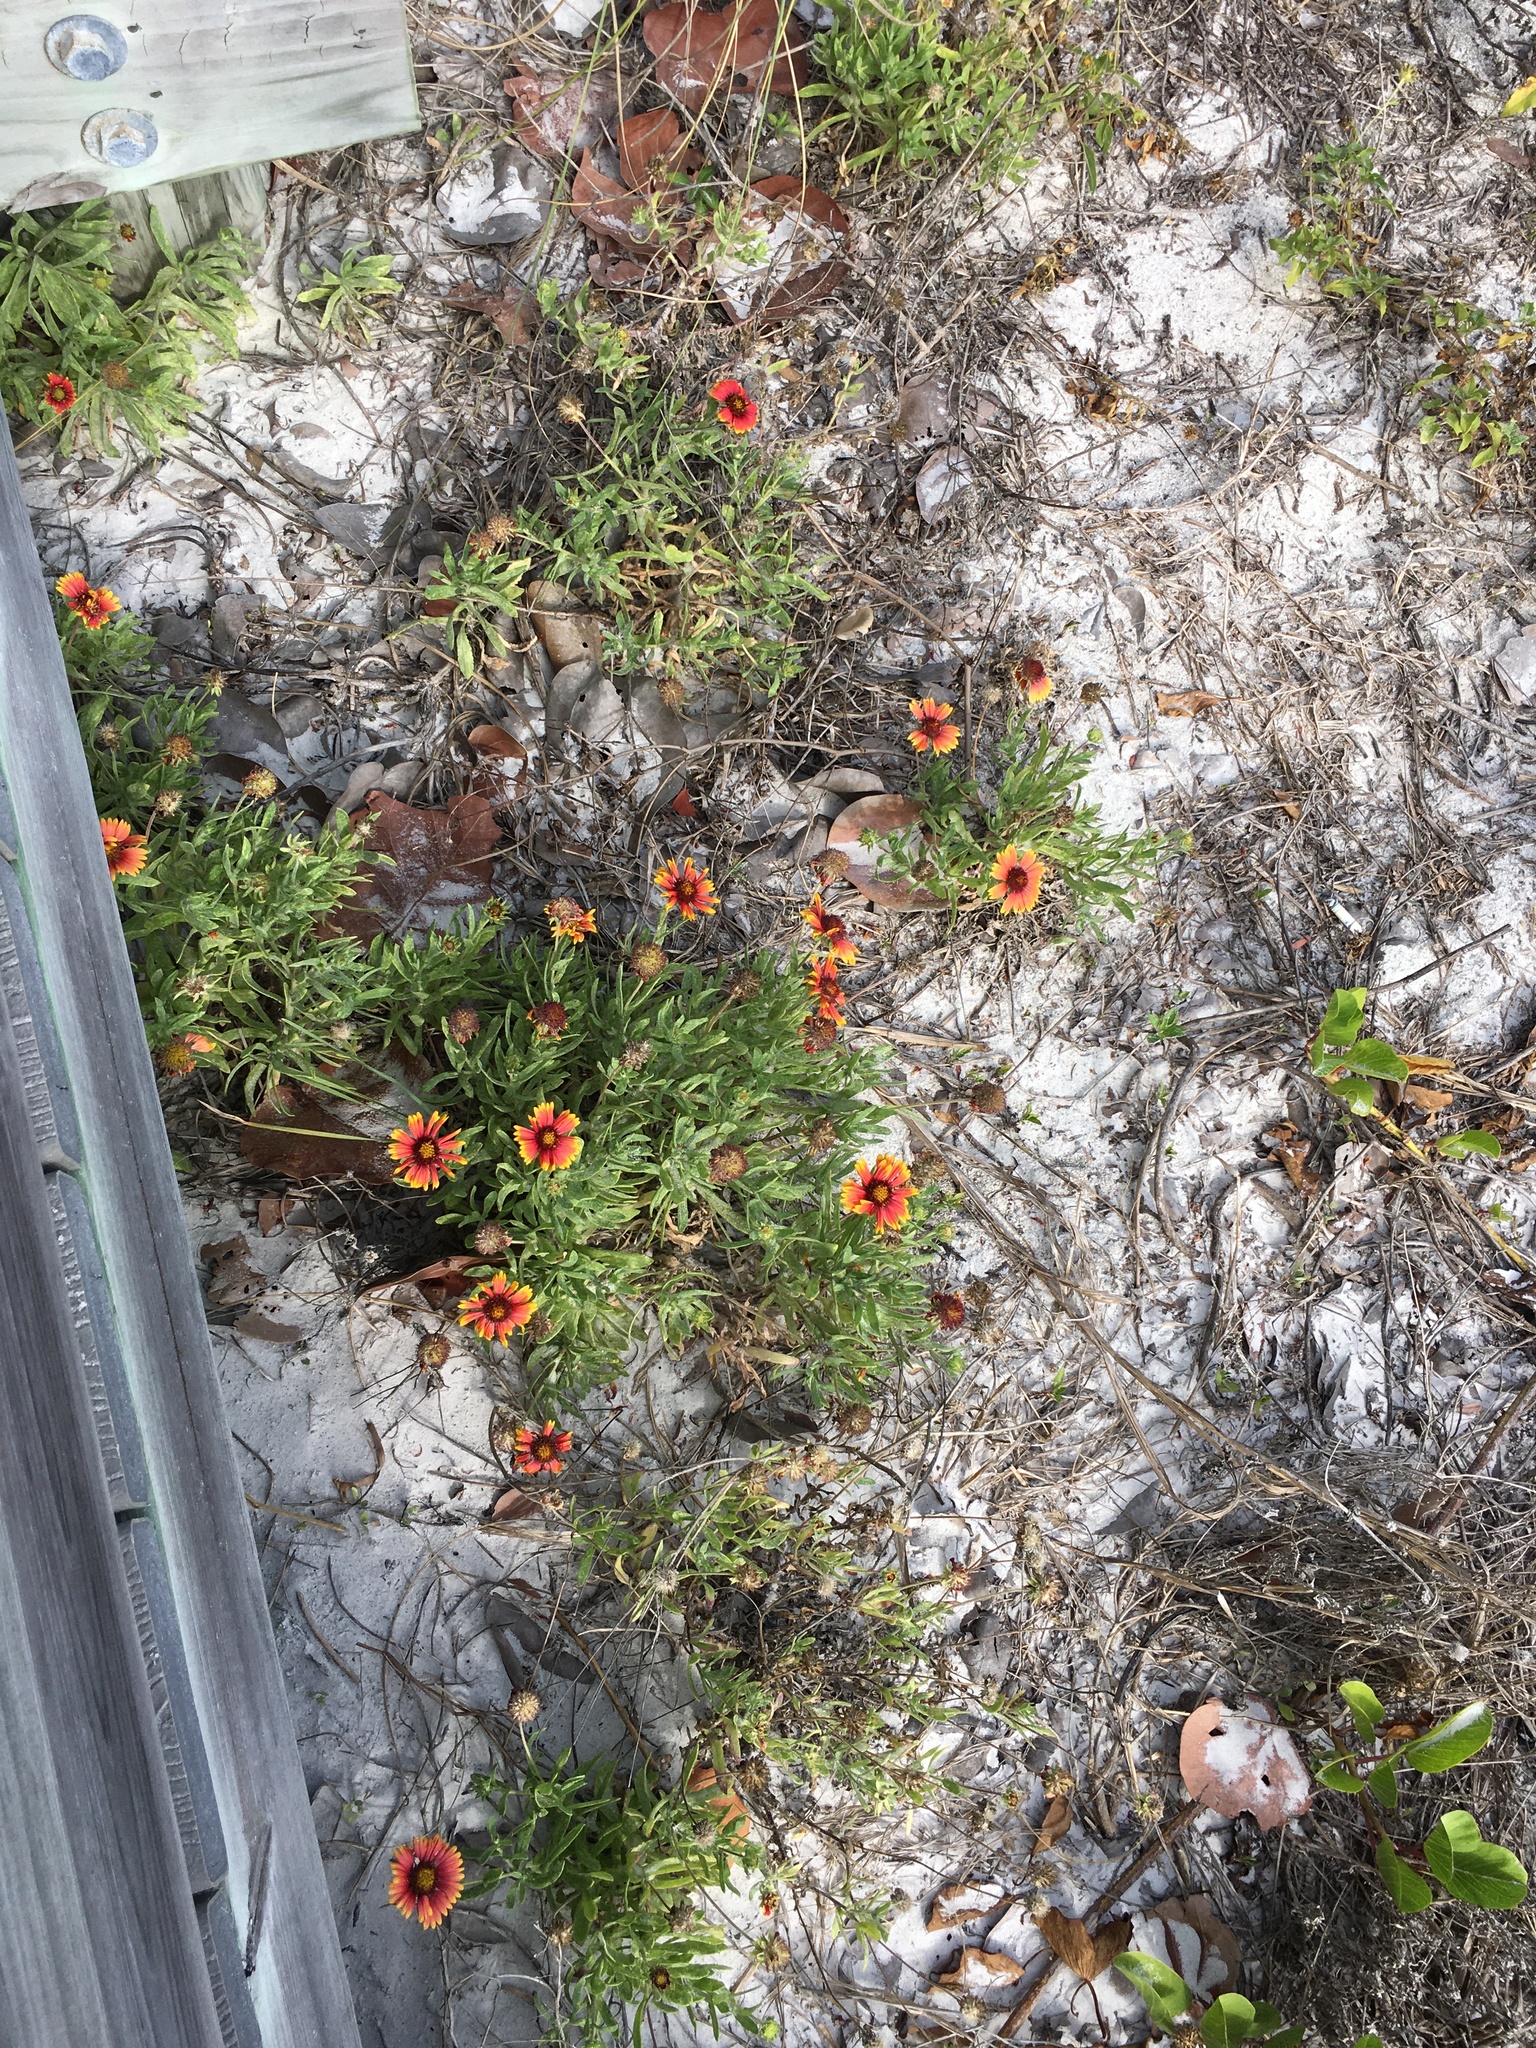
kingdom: Plantae
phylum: Tracheophyta
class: Magnoliopsida
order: Asterales
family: Asteraceae
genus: Gaillardia
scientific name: Gaillardia pulchella
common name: Firewheel
